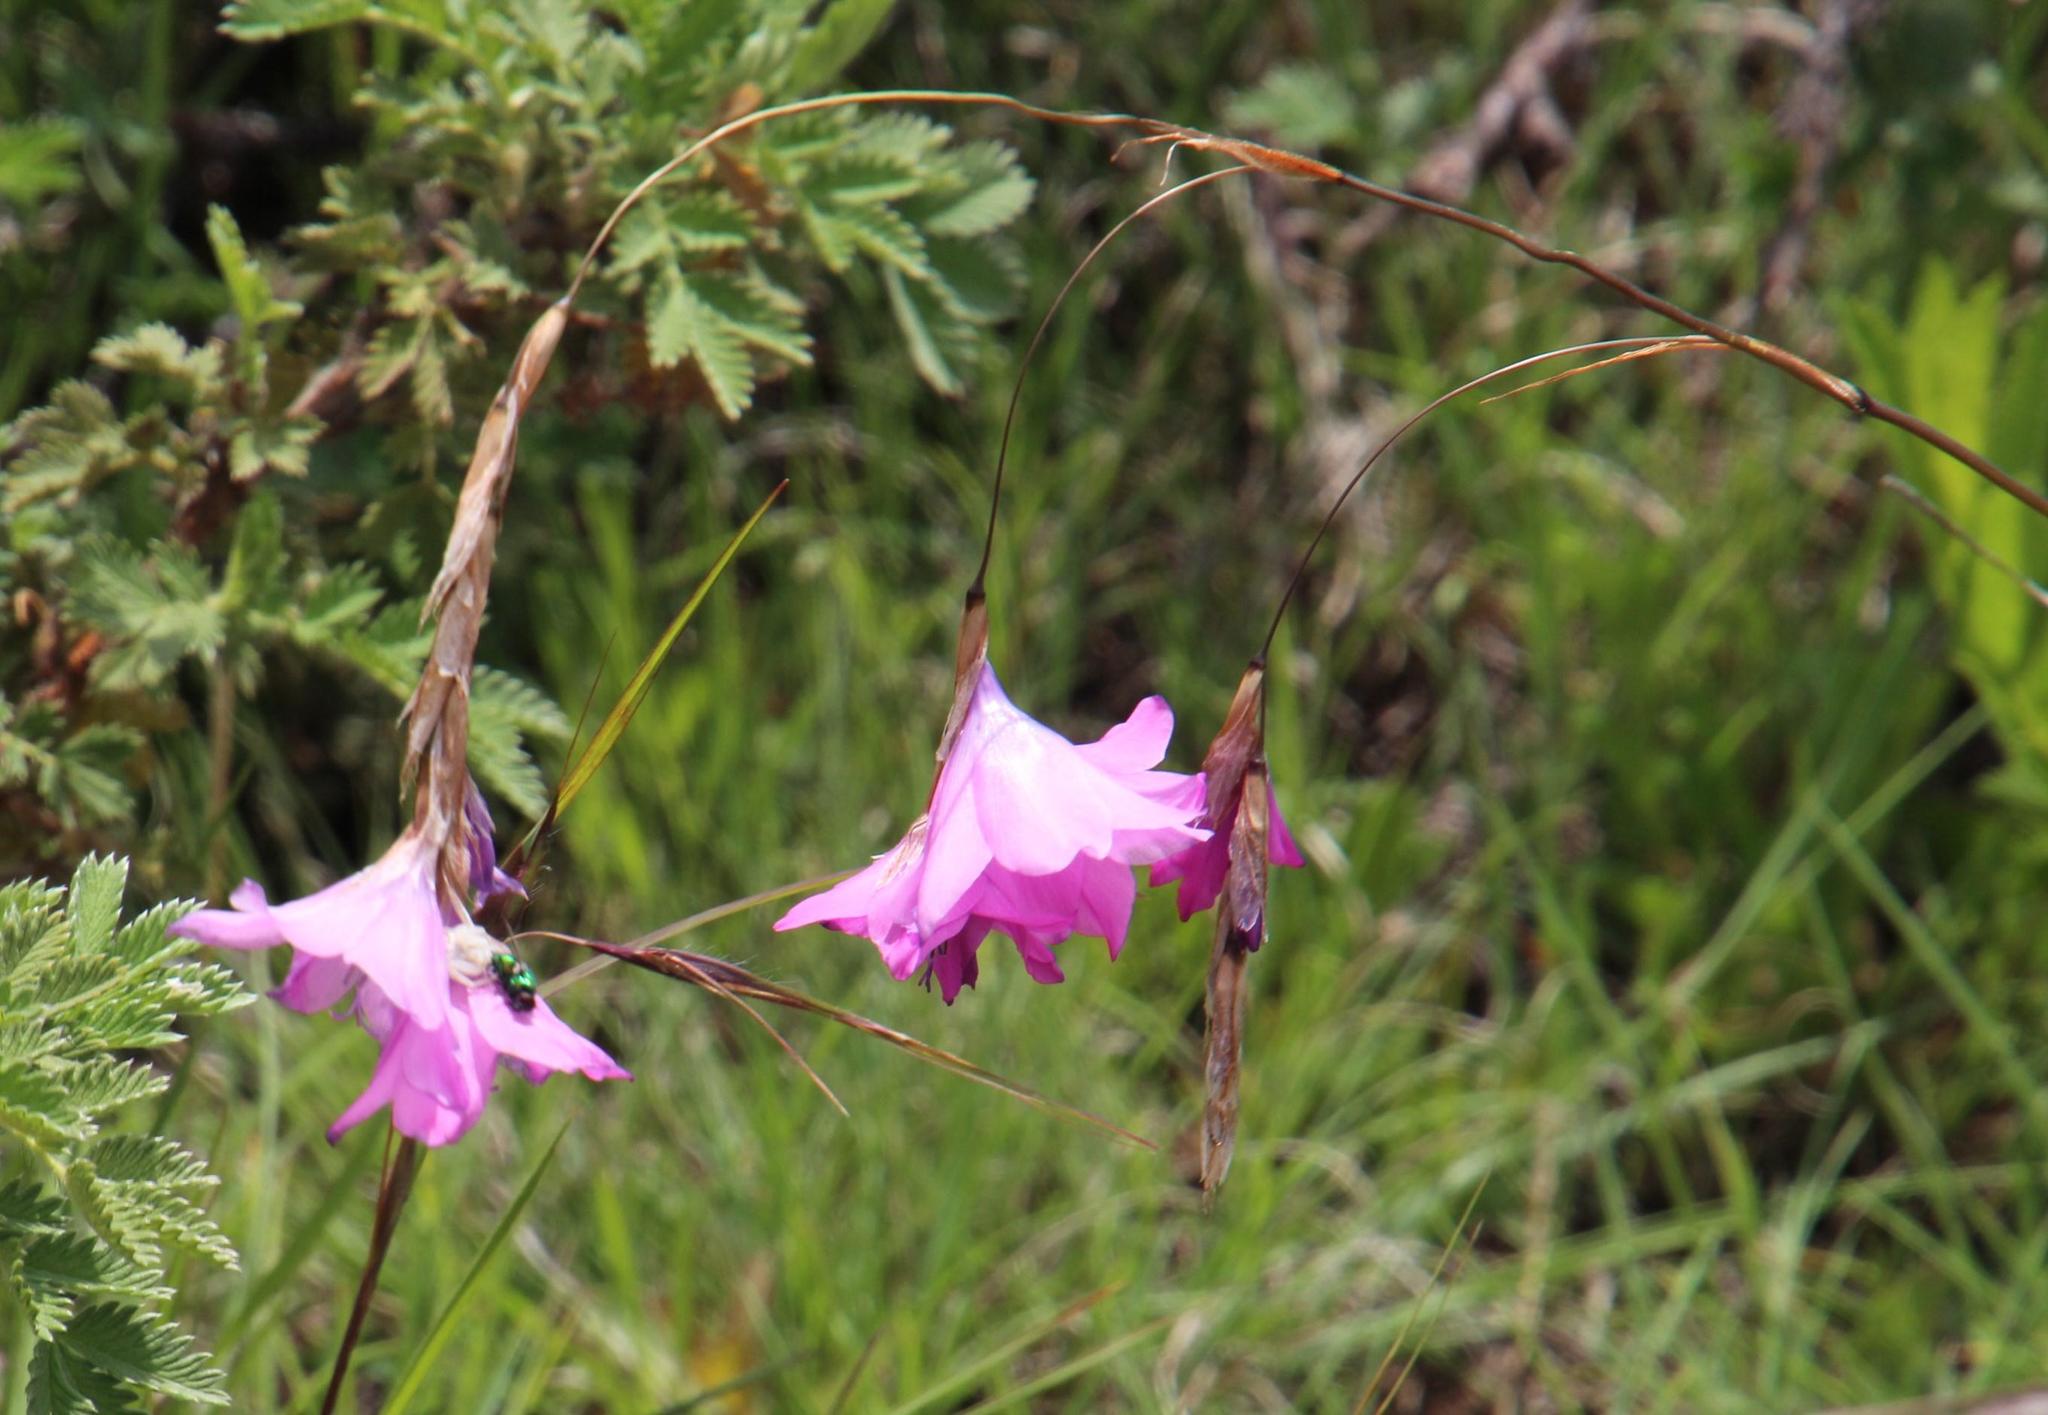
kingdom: Plantae
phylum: Tracheophyta
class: Liliopsida
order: Asparagales
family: Iridaceae
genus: Dierama
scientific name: Dierama pulcherrimum
